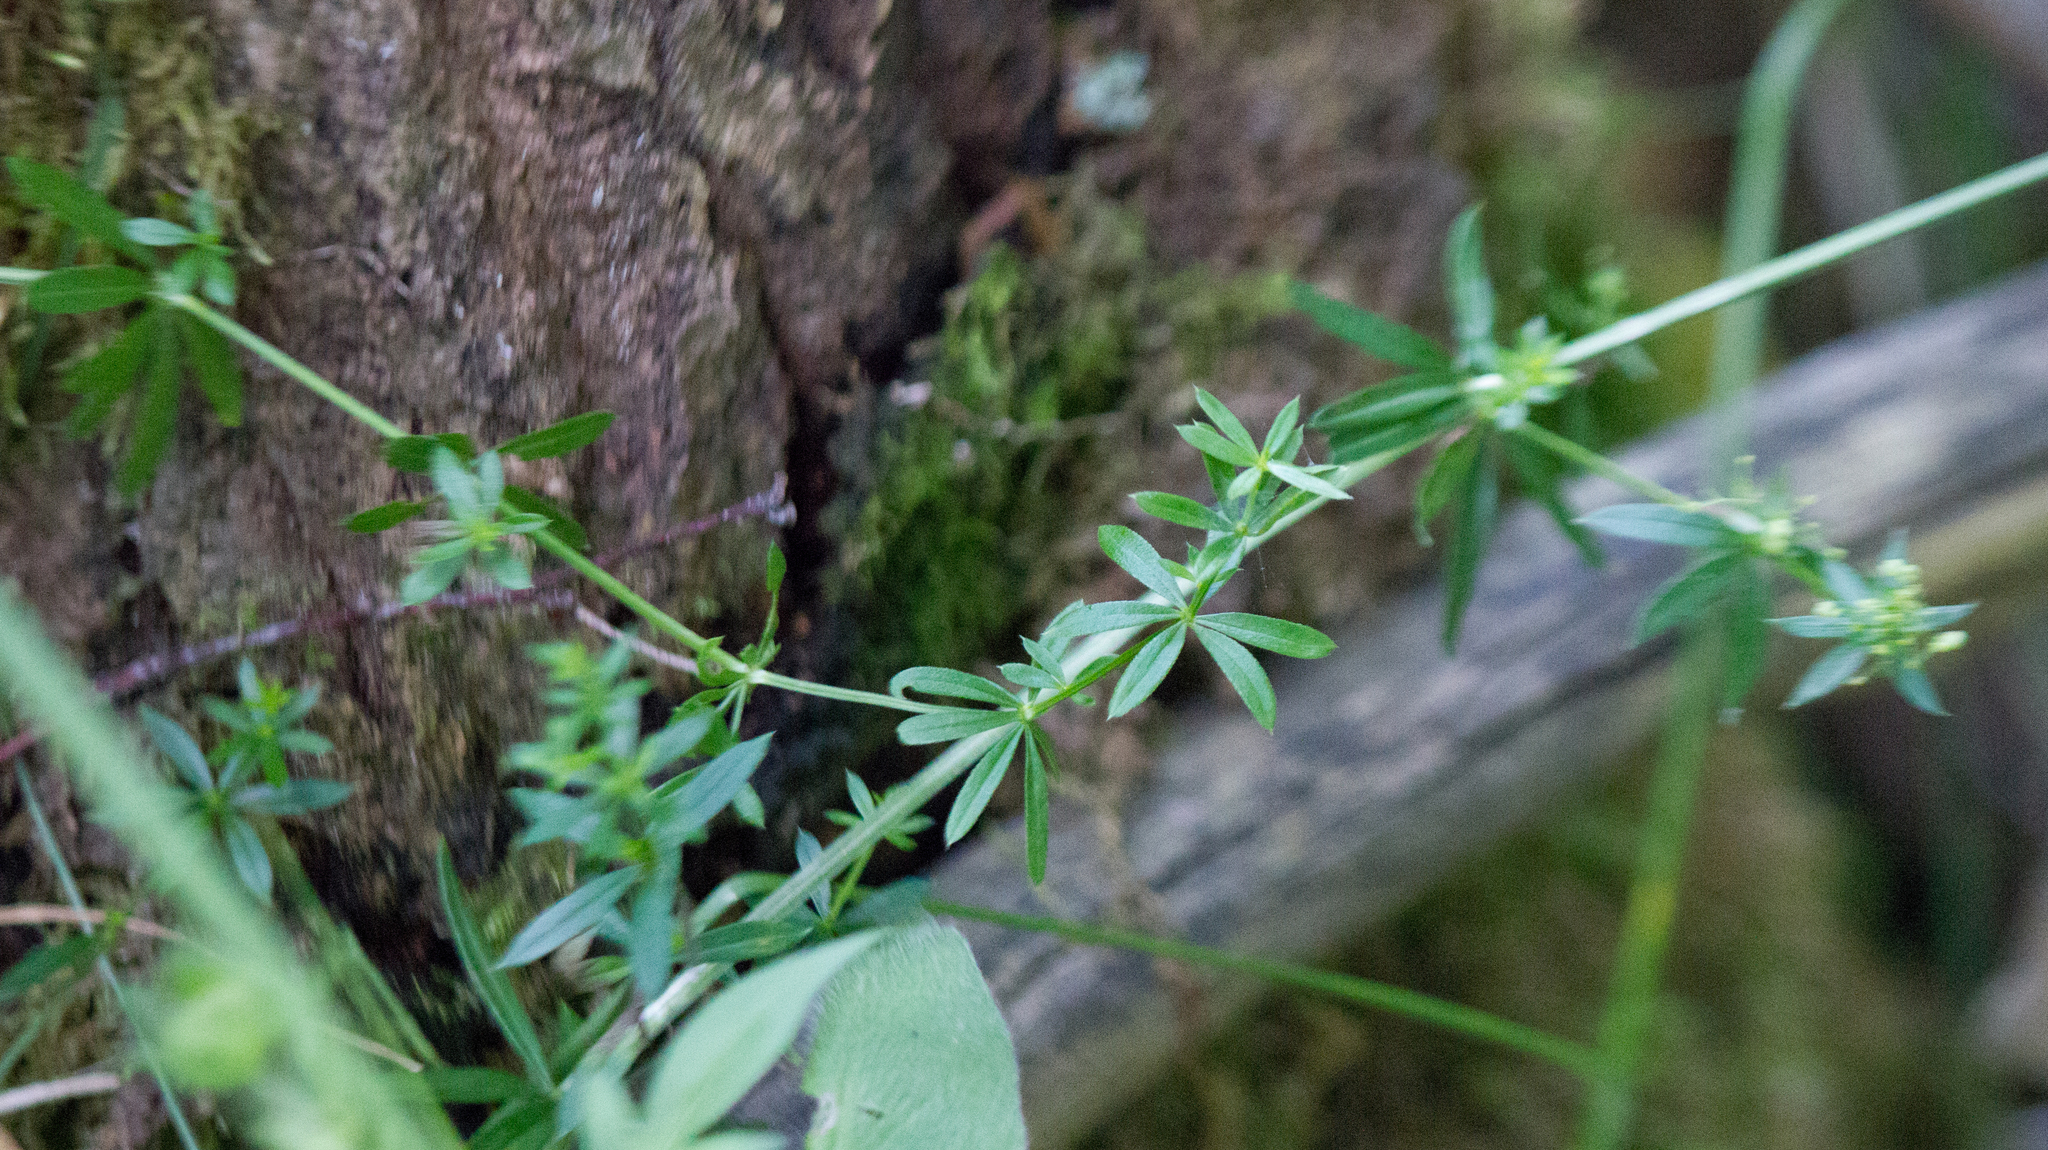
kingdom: Plantae
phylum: Tracheophyta
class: Magnoliopsida
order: Gentianales
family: Rubiaceae
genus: Galium
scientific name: Galium mollugo
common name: Hedge bedstraw
